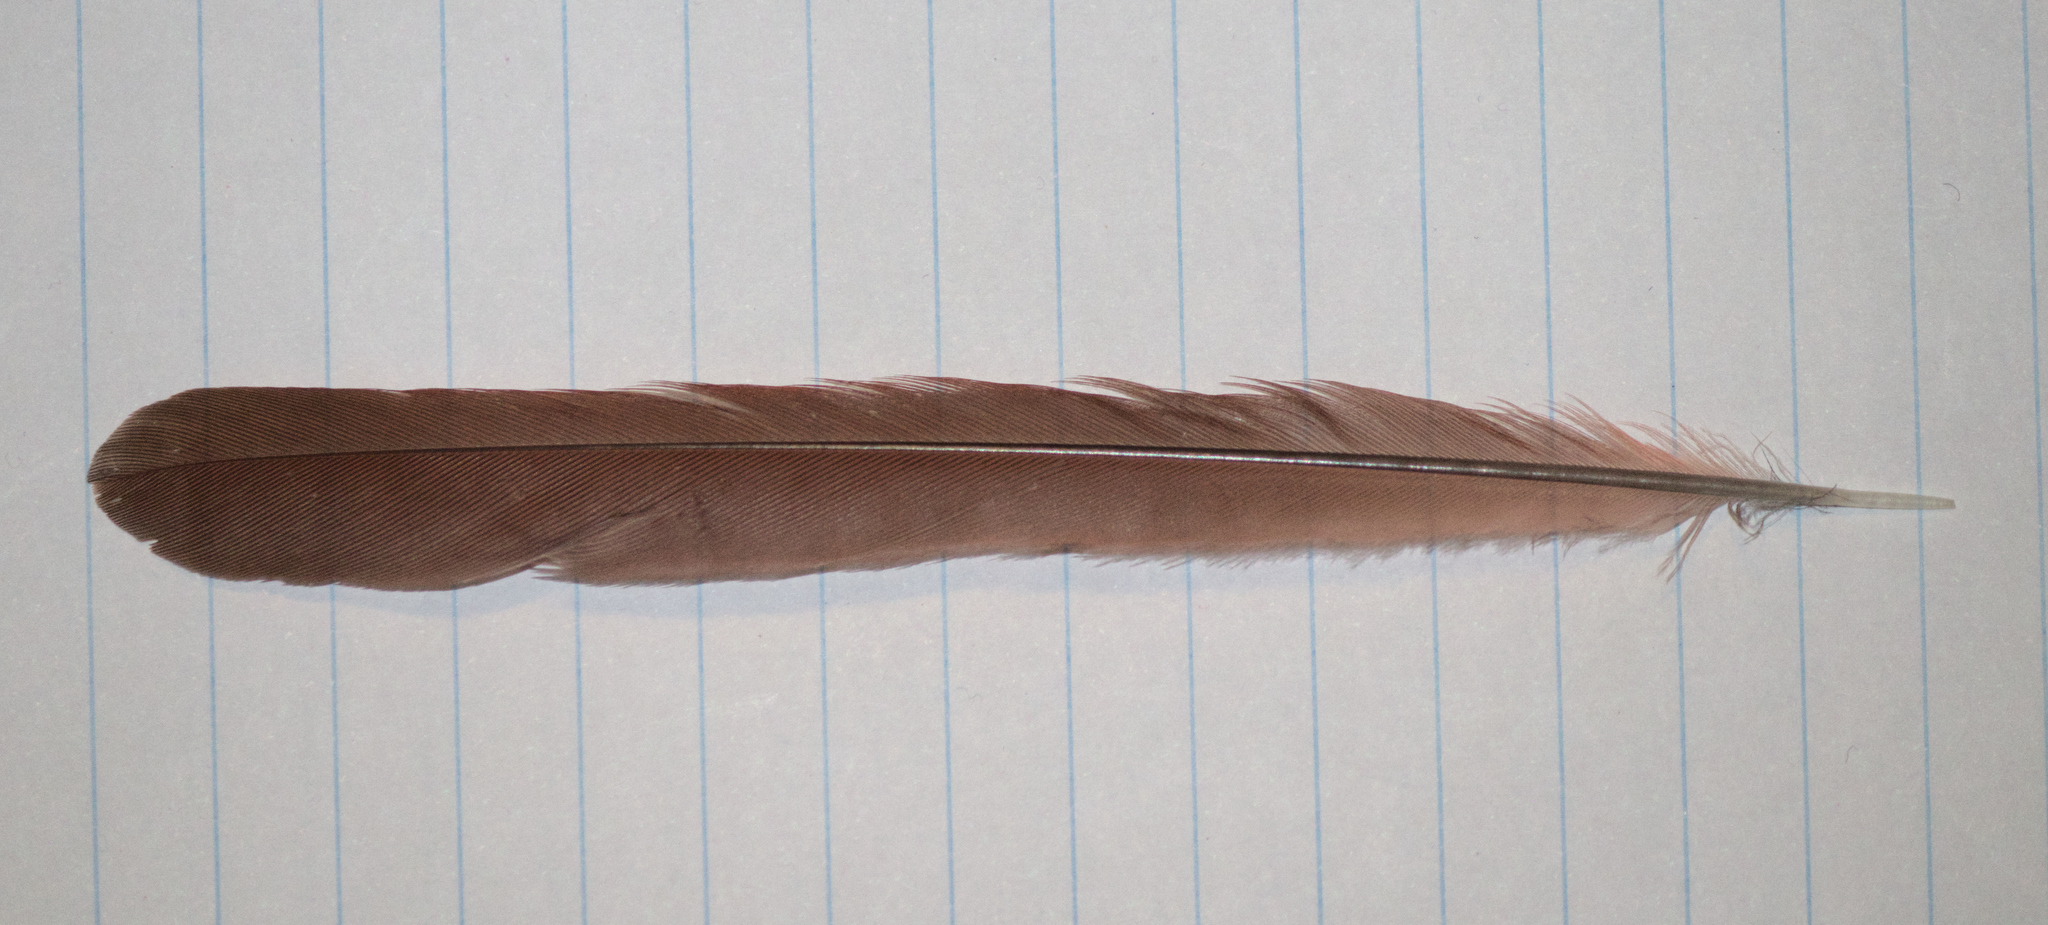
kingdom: Animalia
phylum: Chordata
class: Aves
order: Passeriformes
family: Cardinalidae
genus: Cardinalis
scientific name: Cardinalis cardinalis
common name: Northern cardinal
